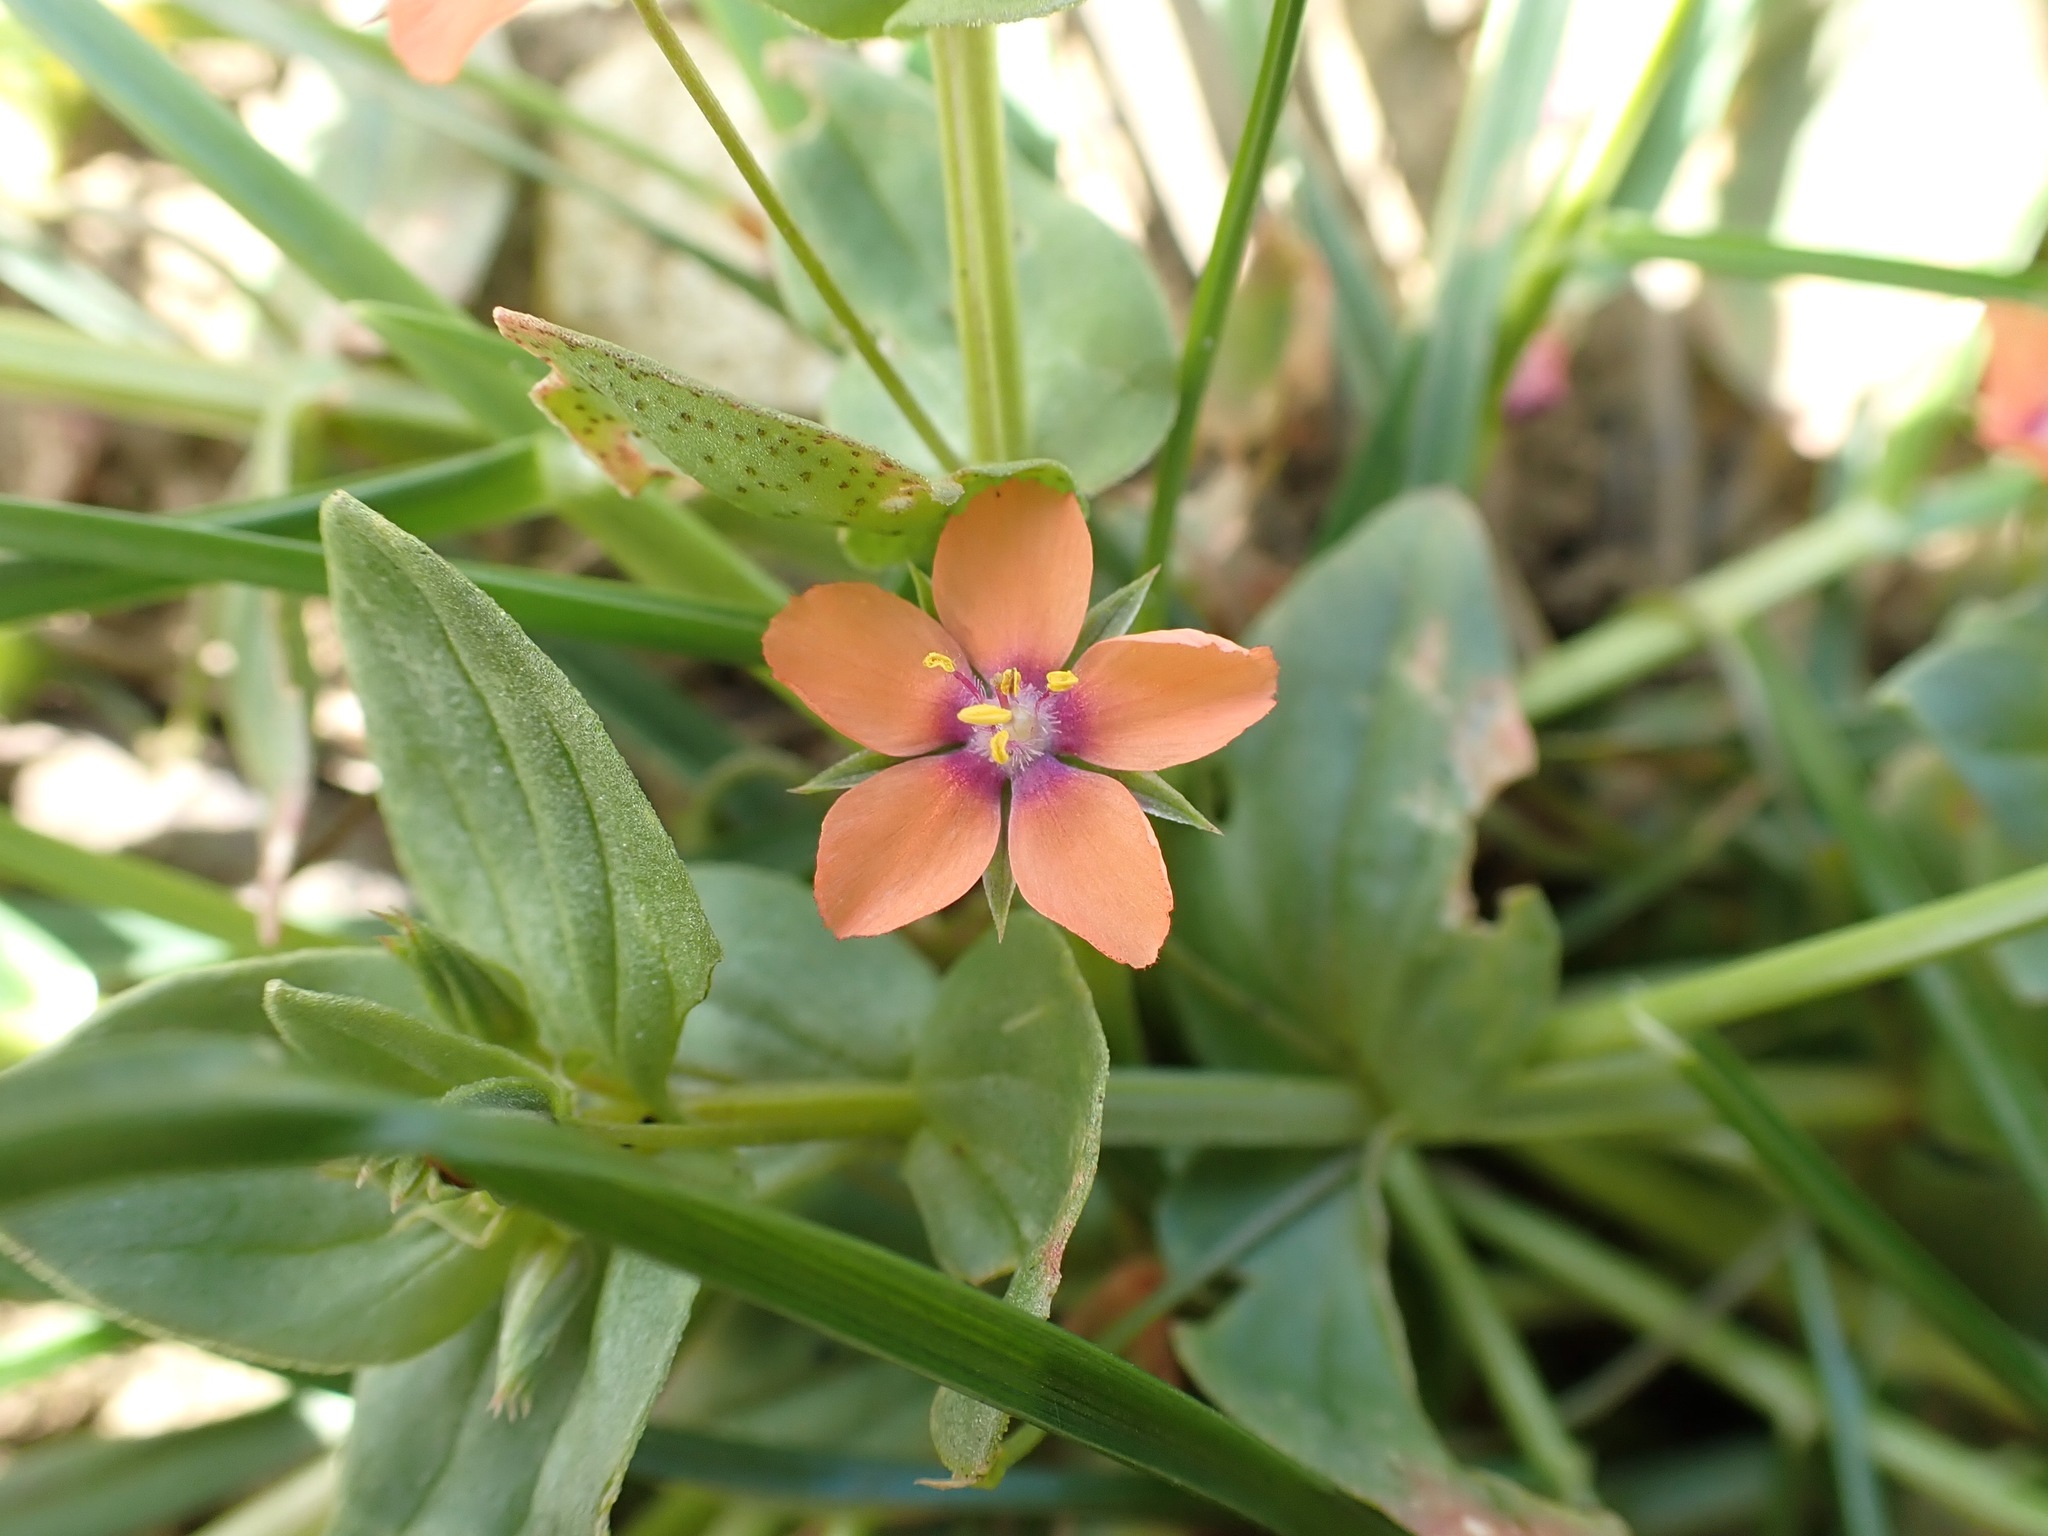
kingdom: Plantae
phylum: Tracheophyta
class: Magnoliopsida
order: Ericales
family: Primulaceae
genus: Lysimachia
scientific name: Lysimachia arvensis
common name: Scarlet pimpernel
